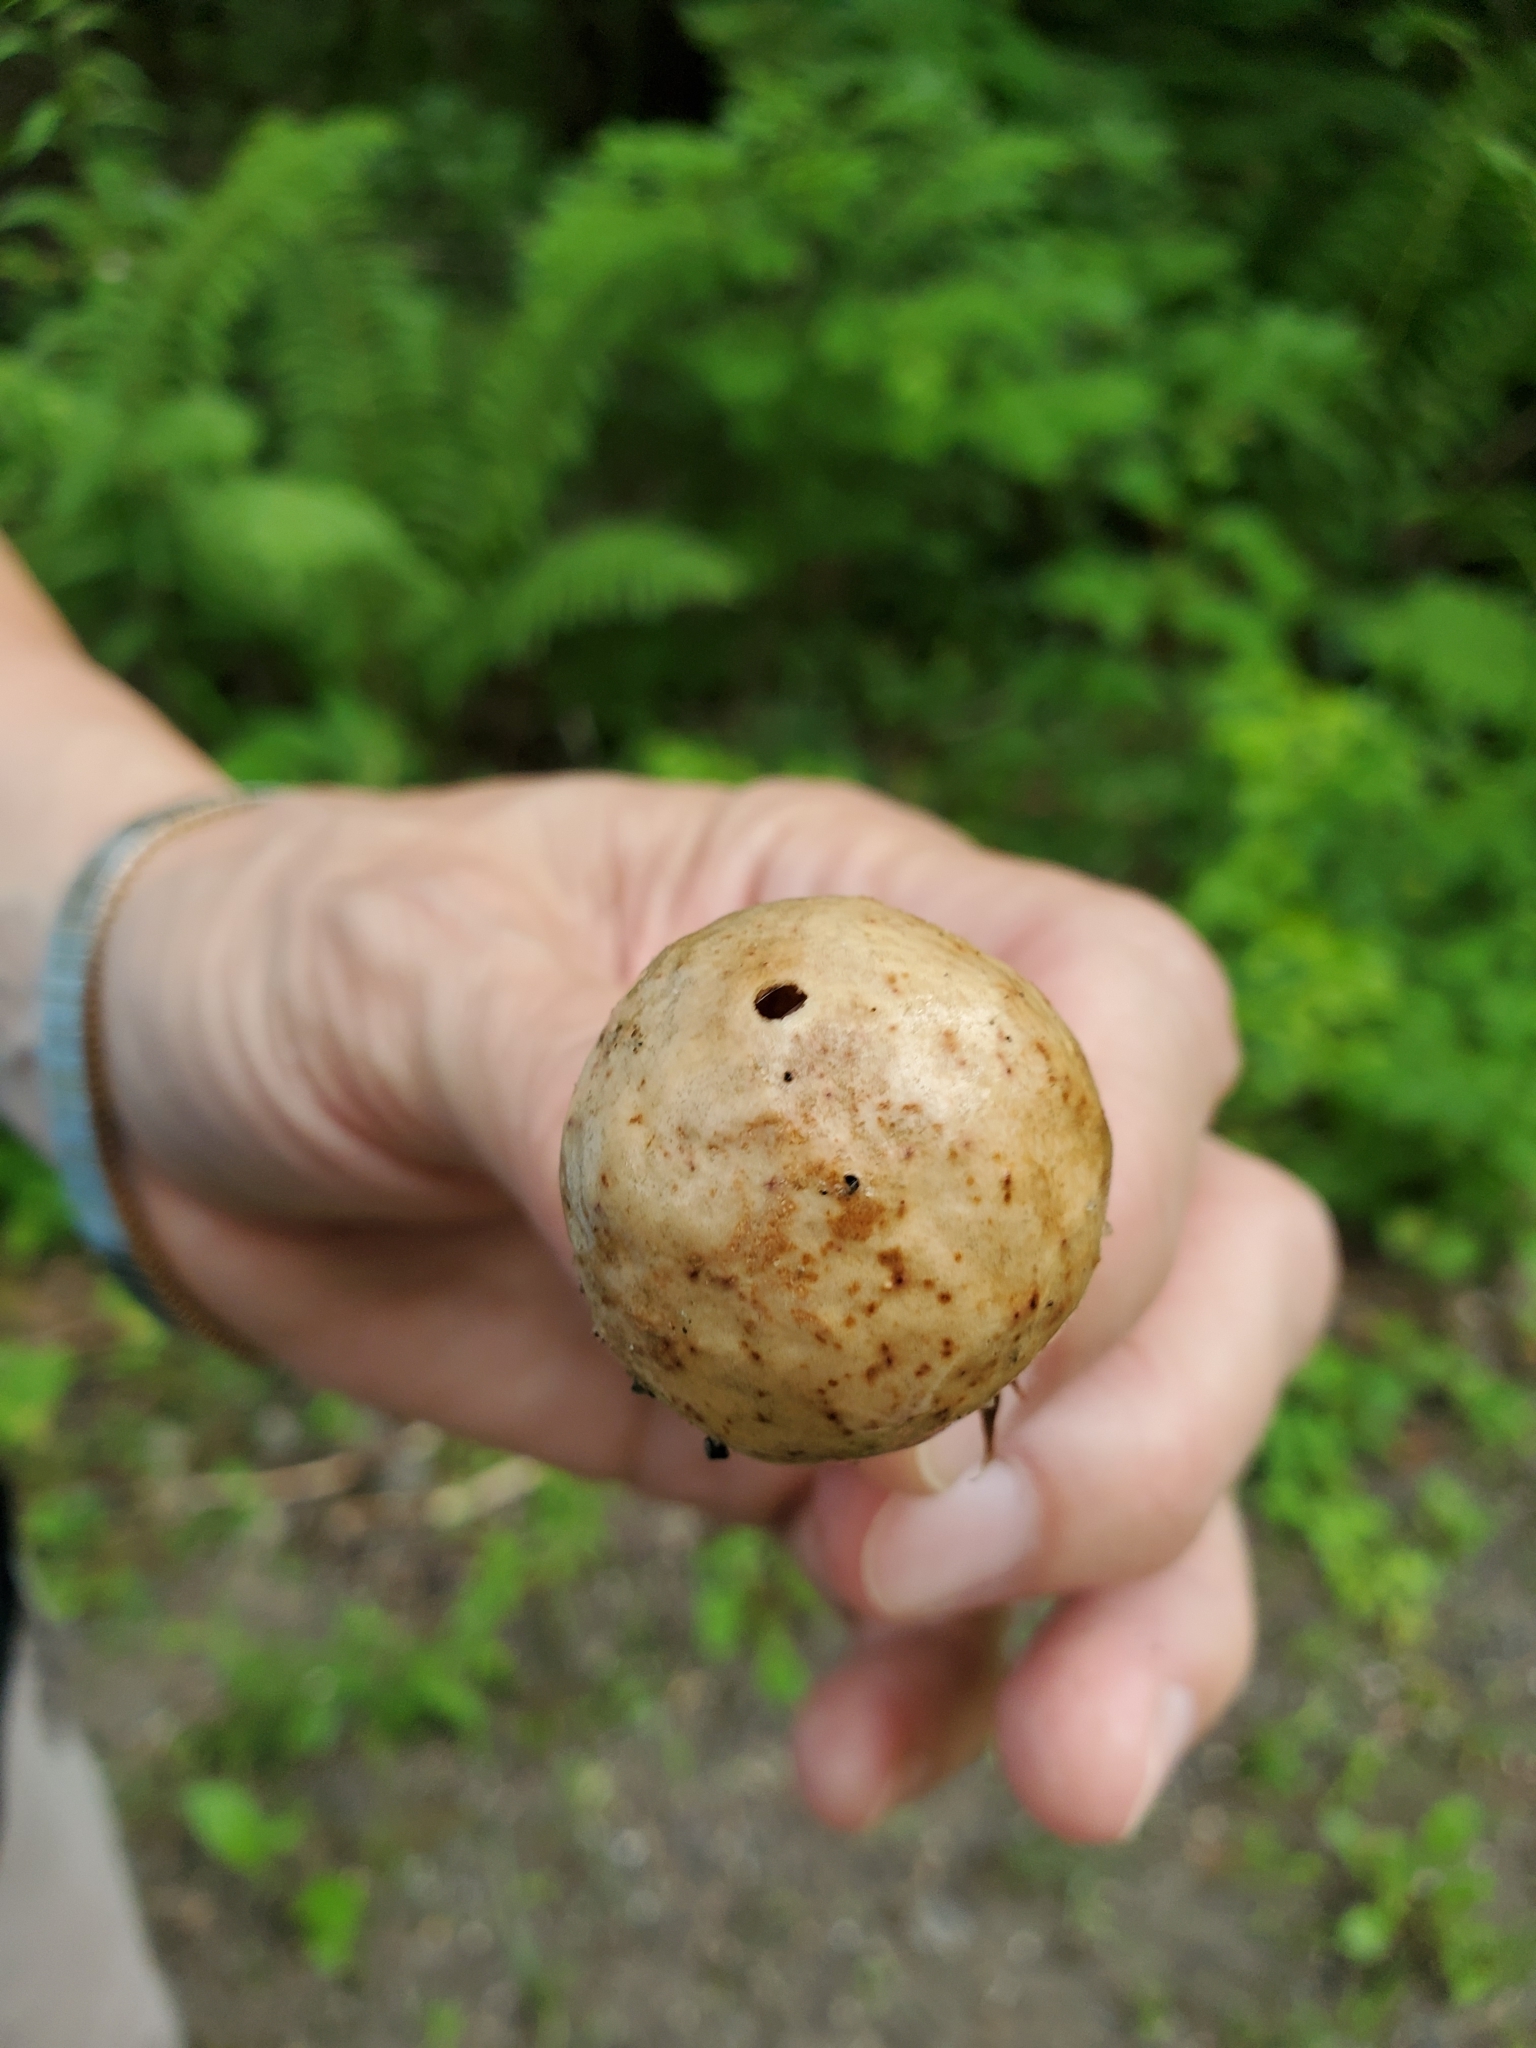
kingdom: Animalia
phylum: Arthropoda
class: Insecta
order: Hymenoptera
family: Cynipidae
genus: Amphibolips
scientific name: Amphibolips
